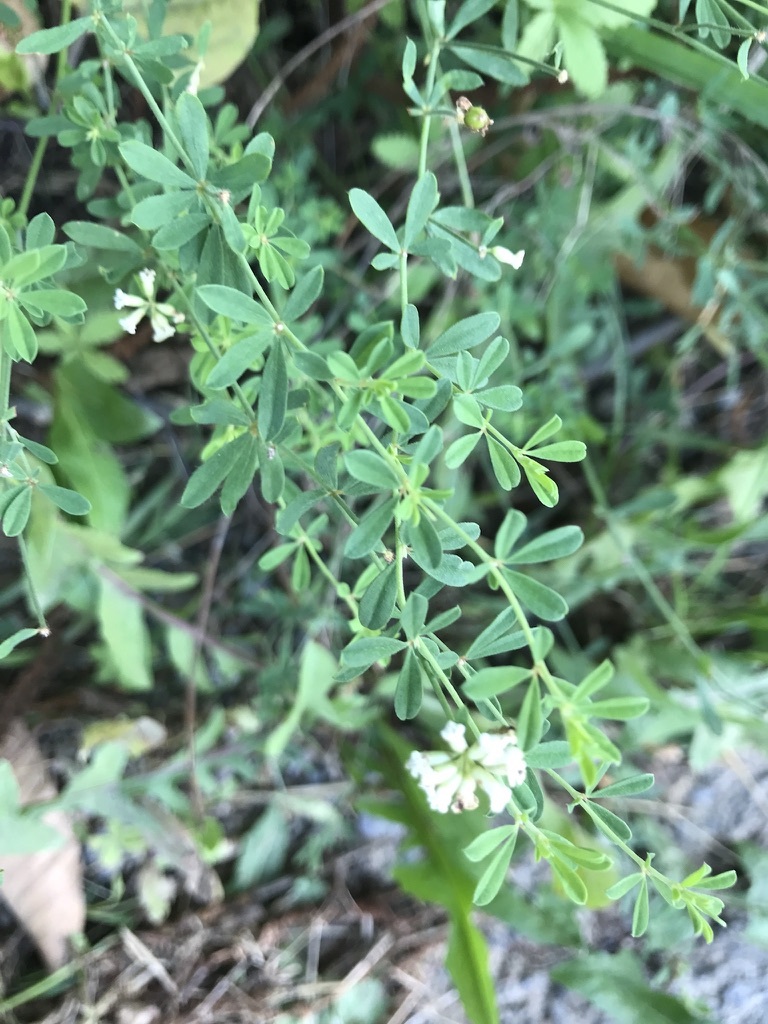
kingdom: Plantae
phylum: Tracheophyta
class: Magnoliopsida
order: Fabales
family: Fabaceae
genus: Lotus
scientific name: Lotus dorycnium
